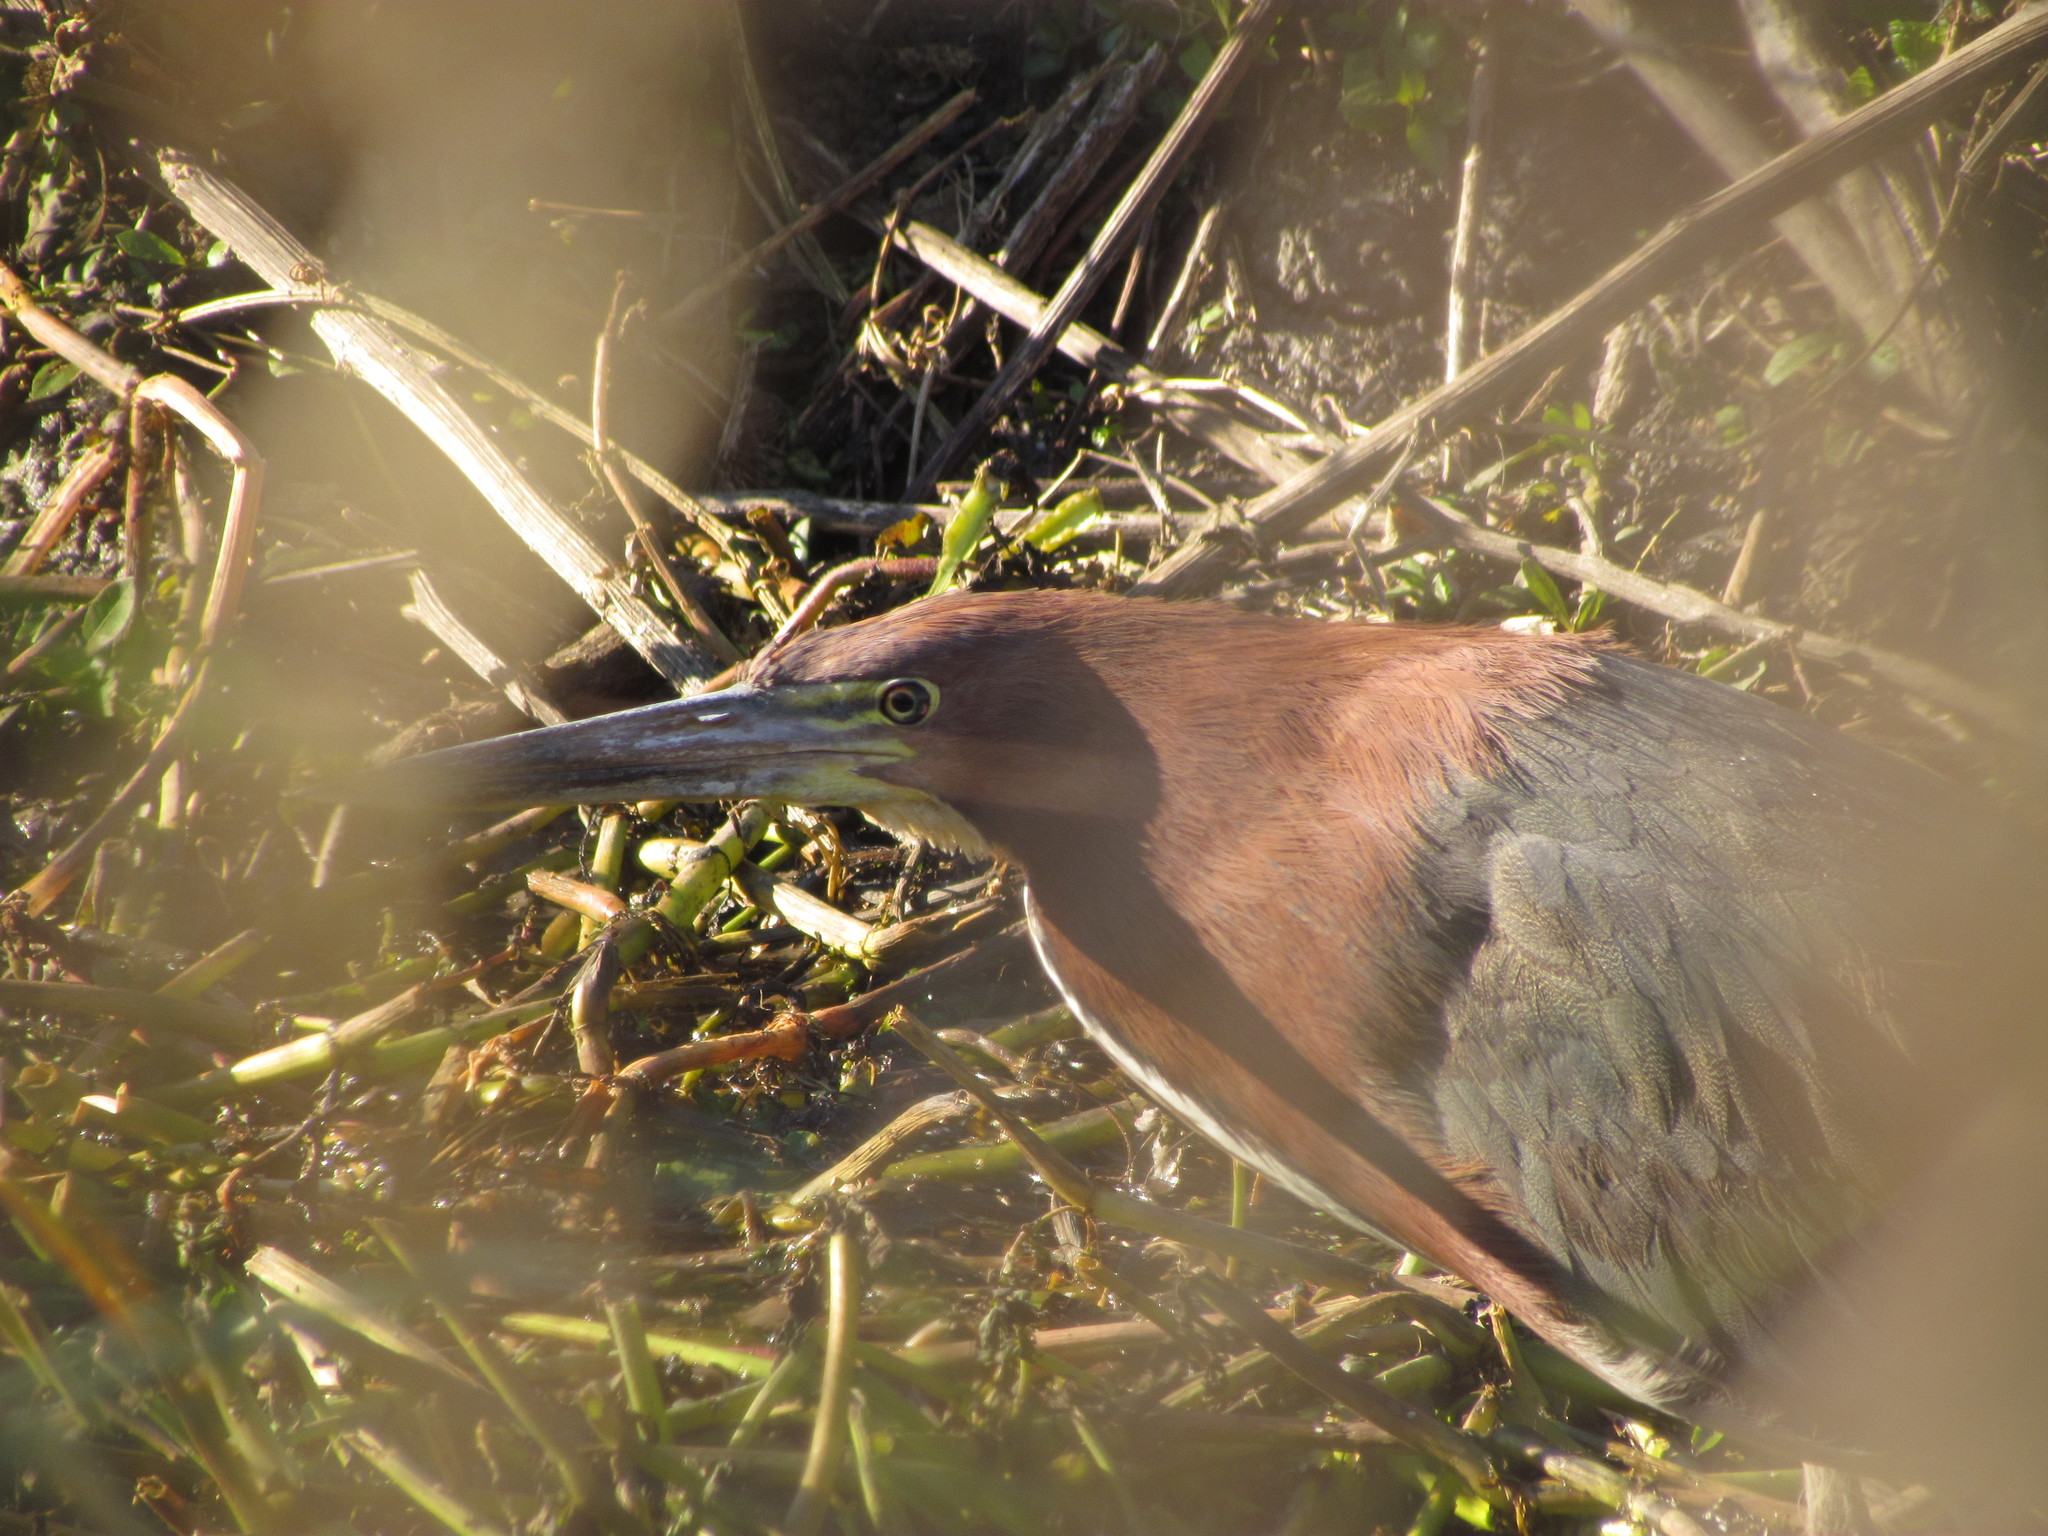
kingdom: Animalia
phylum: Chordata
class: Aves
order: Pelecaniformes
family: Ardeidae
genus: Tigrisoma
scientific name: Tigrisoma lineatum
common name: Rufescent tiger-heron
